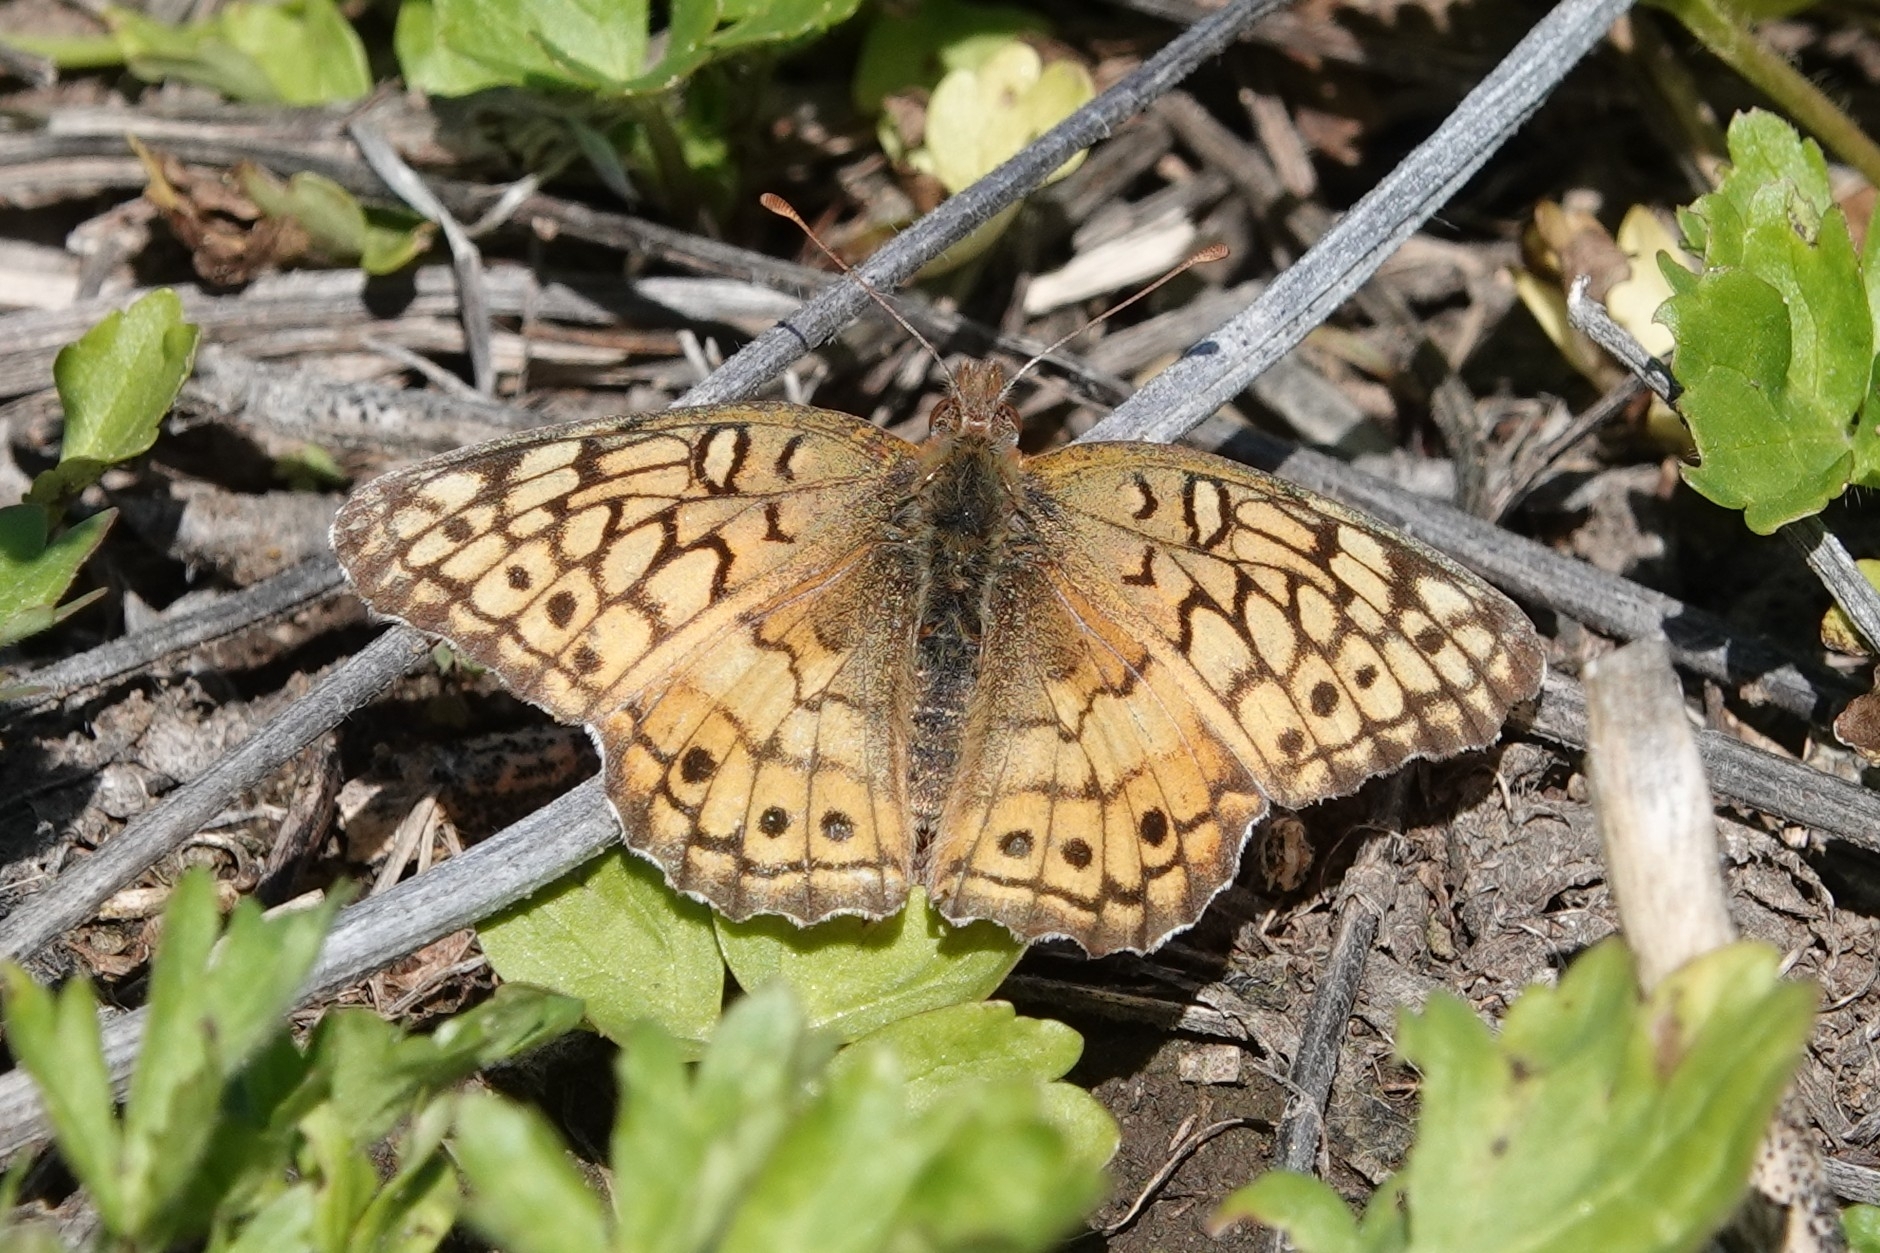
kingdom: Animalia
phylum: Arthropoda
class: Insecta
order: Lepidoptera
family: Nymphalidae
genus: Euptoieta
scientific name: Euptoieta claudia
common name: Variegated fritillary
